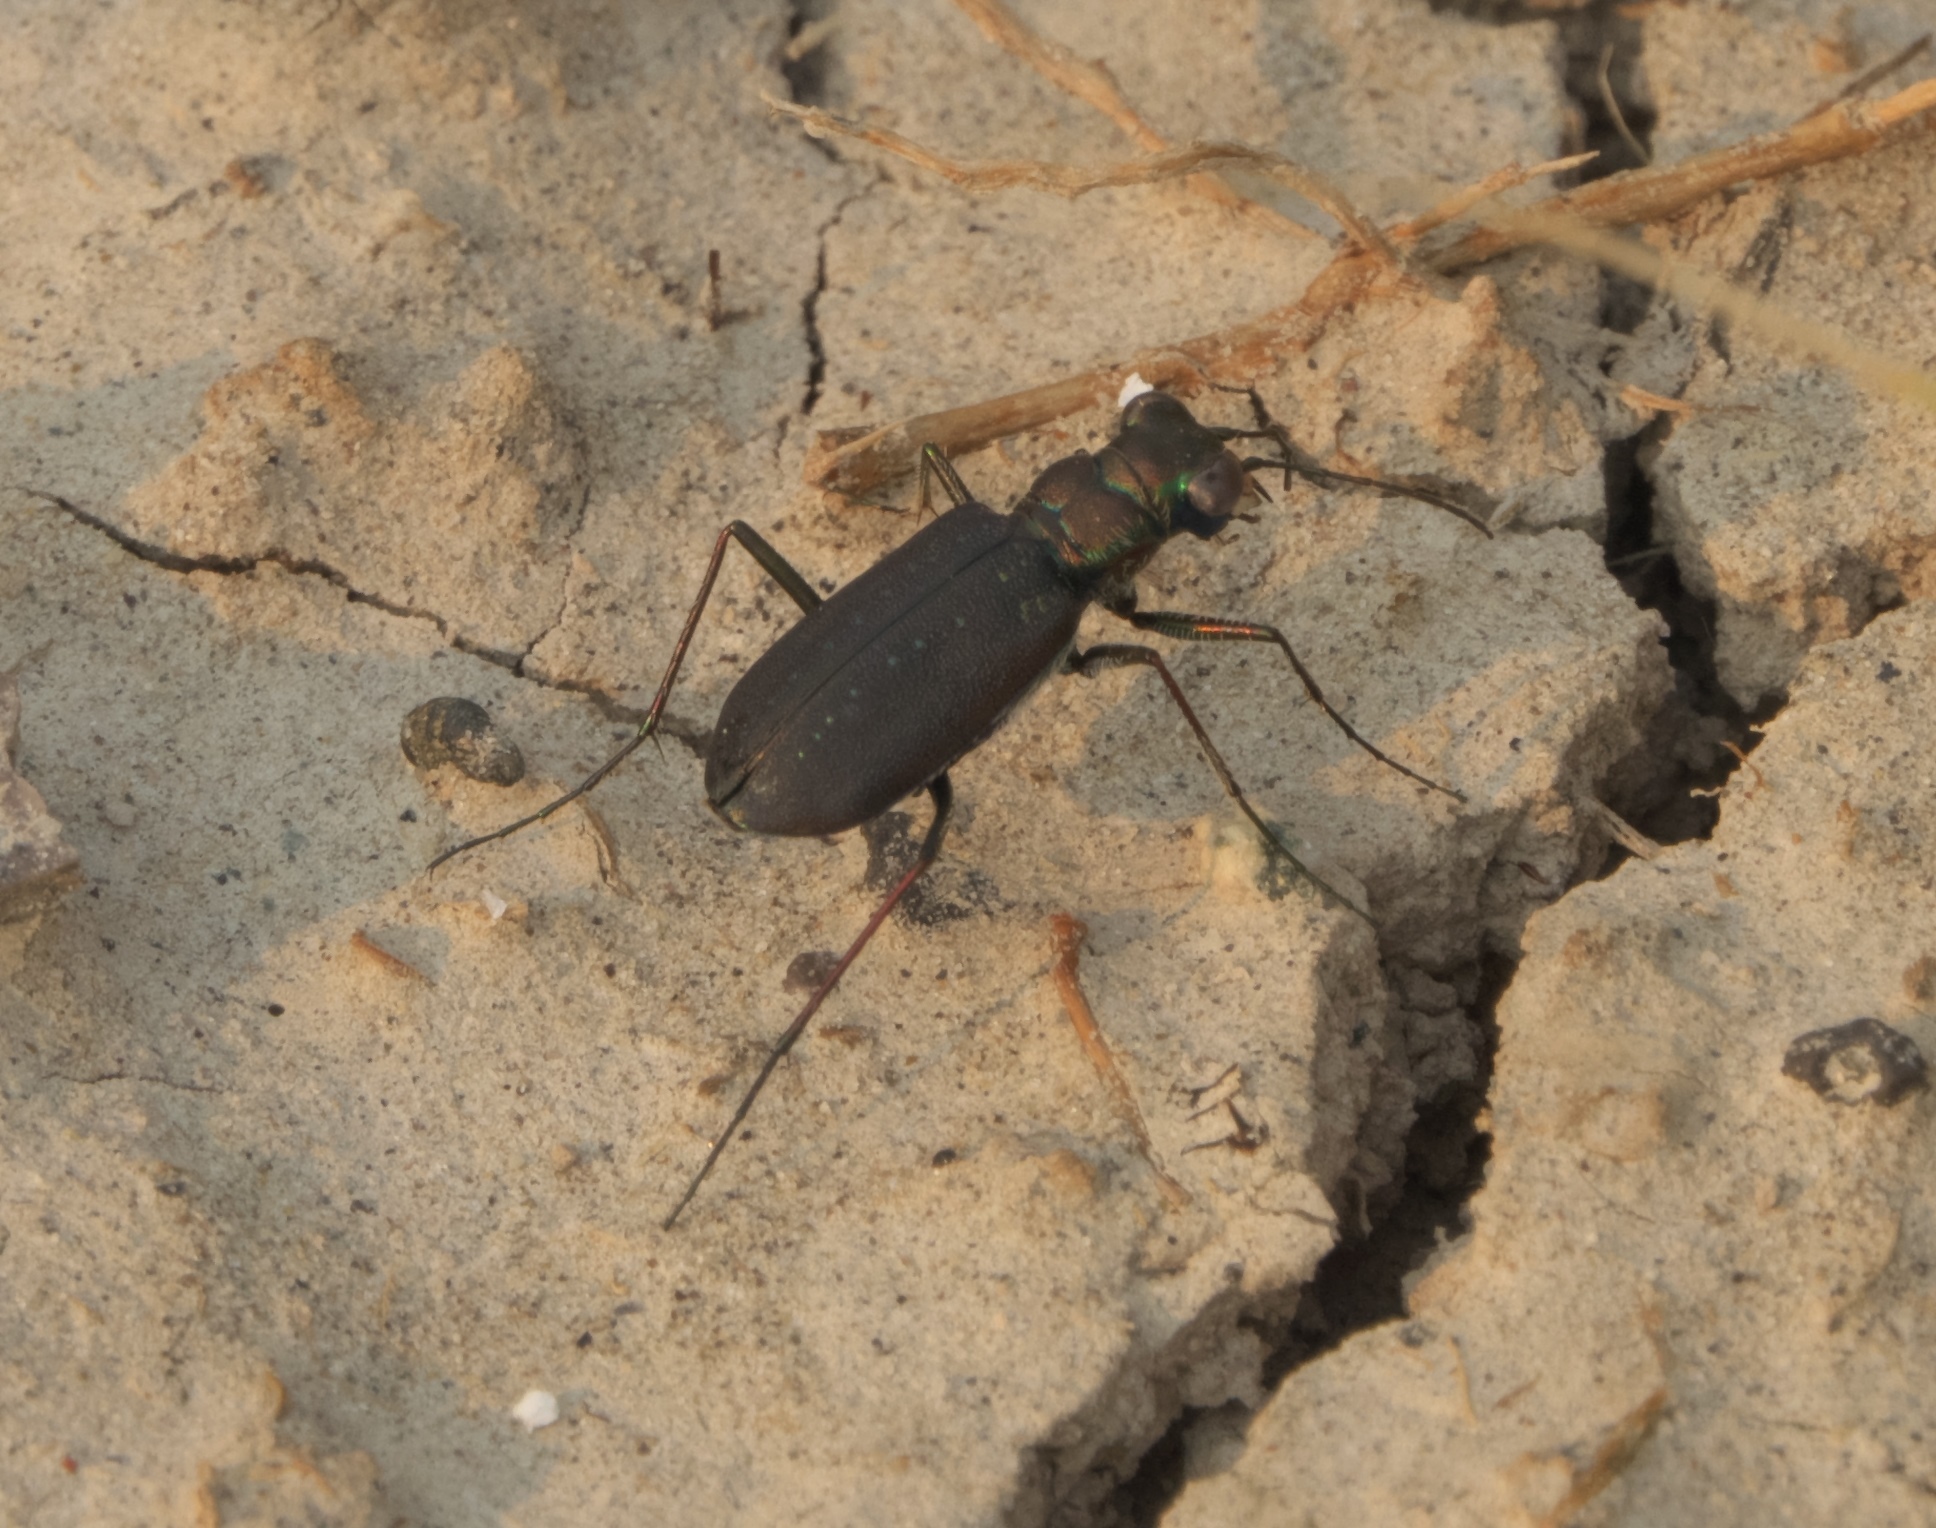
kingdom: Animalia
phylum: Arthropoda
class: Insecta
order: Coleoptera
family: Carabidae
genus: Cicindela
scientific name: Cicindela punctulata
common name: Punctured tiger beetle
